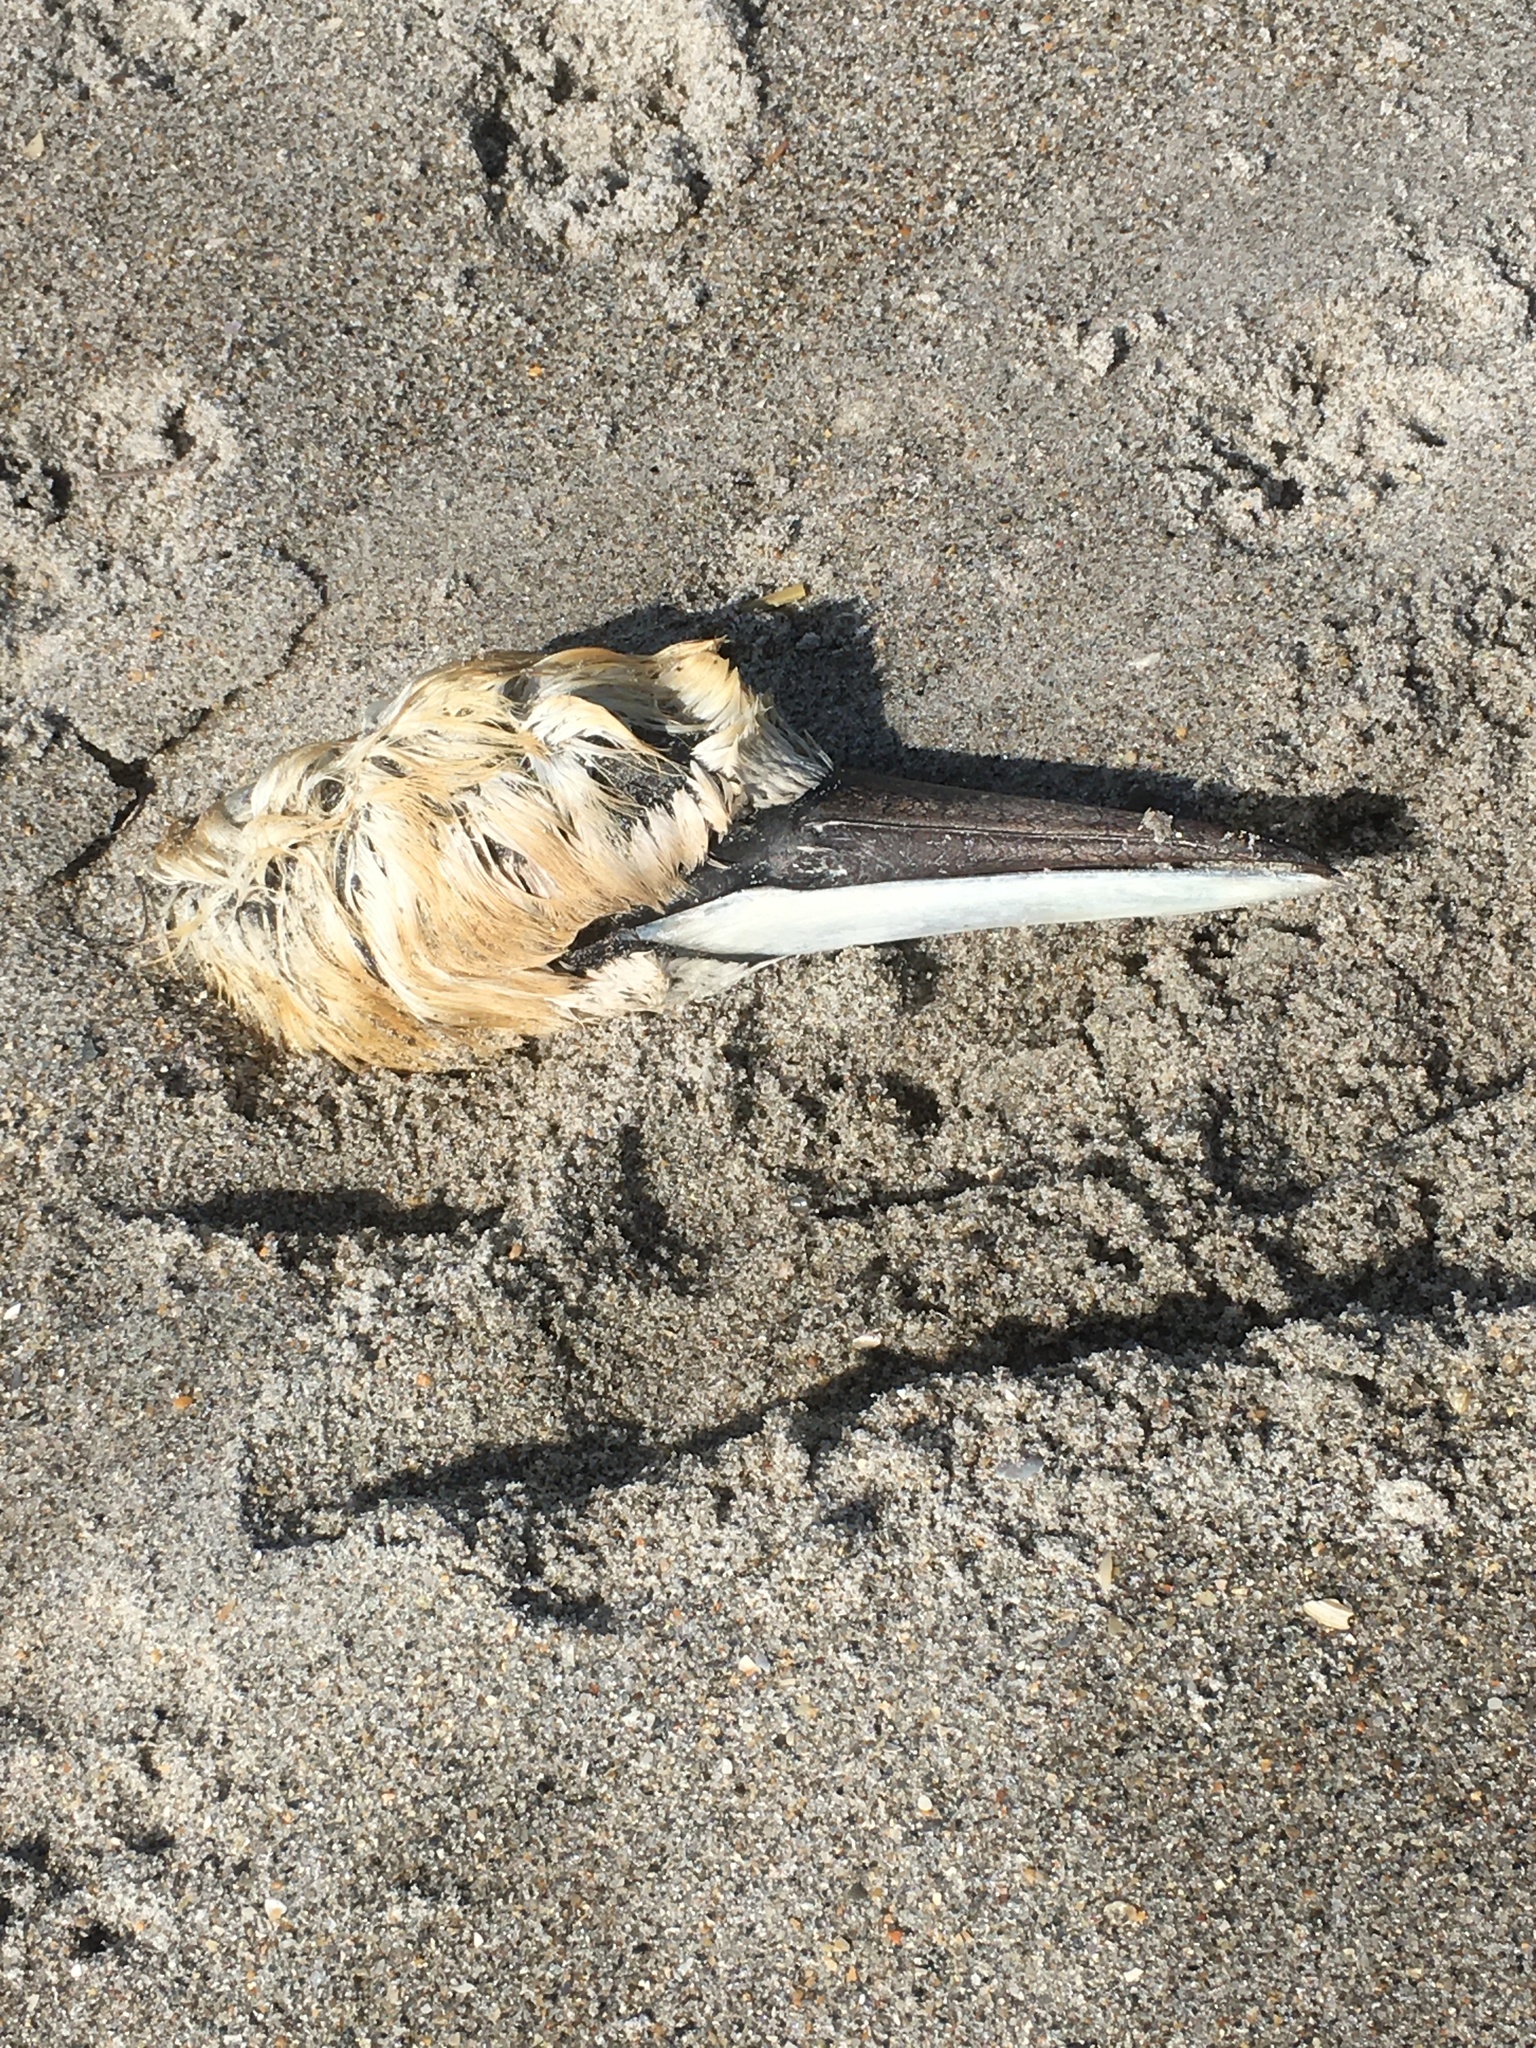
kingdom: Animalia
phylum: Chordata
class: Aves
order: Suliformes
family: Sulidae
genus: Morus
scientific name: Morus bassanus
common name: Northern gannet
